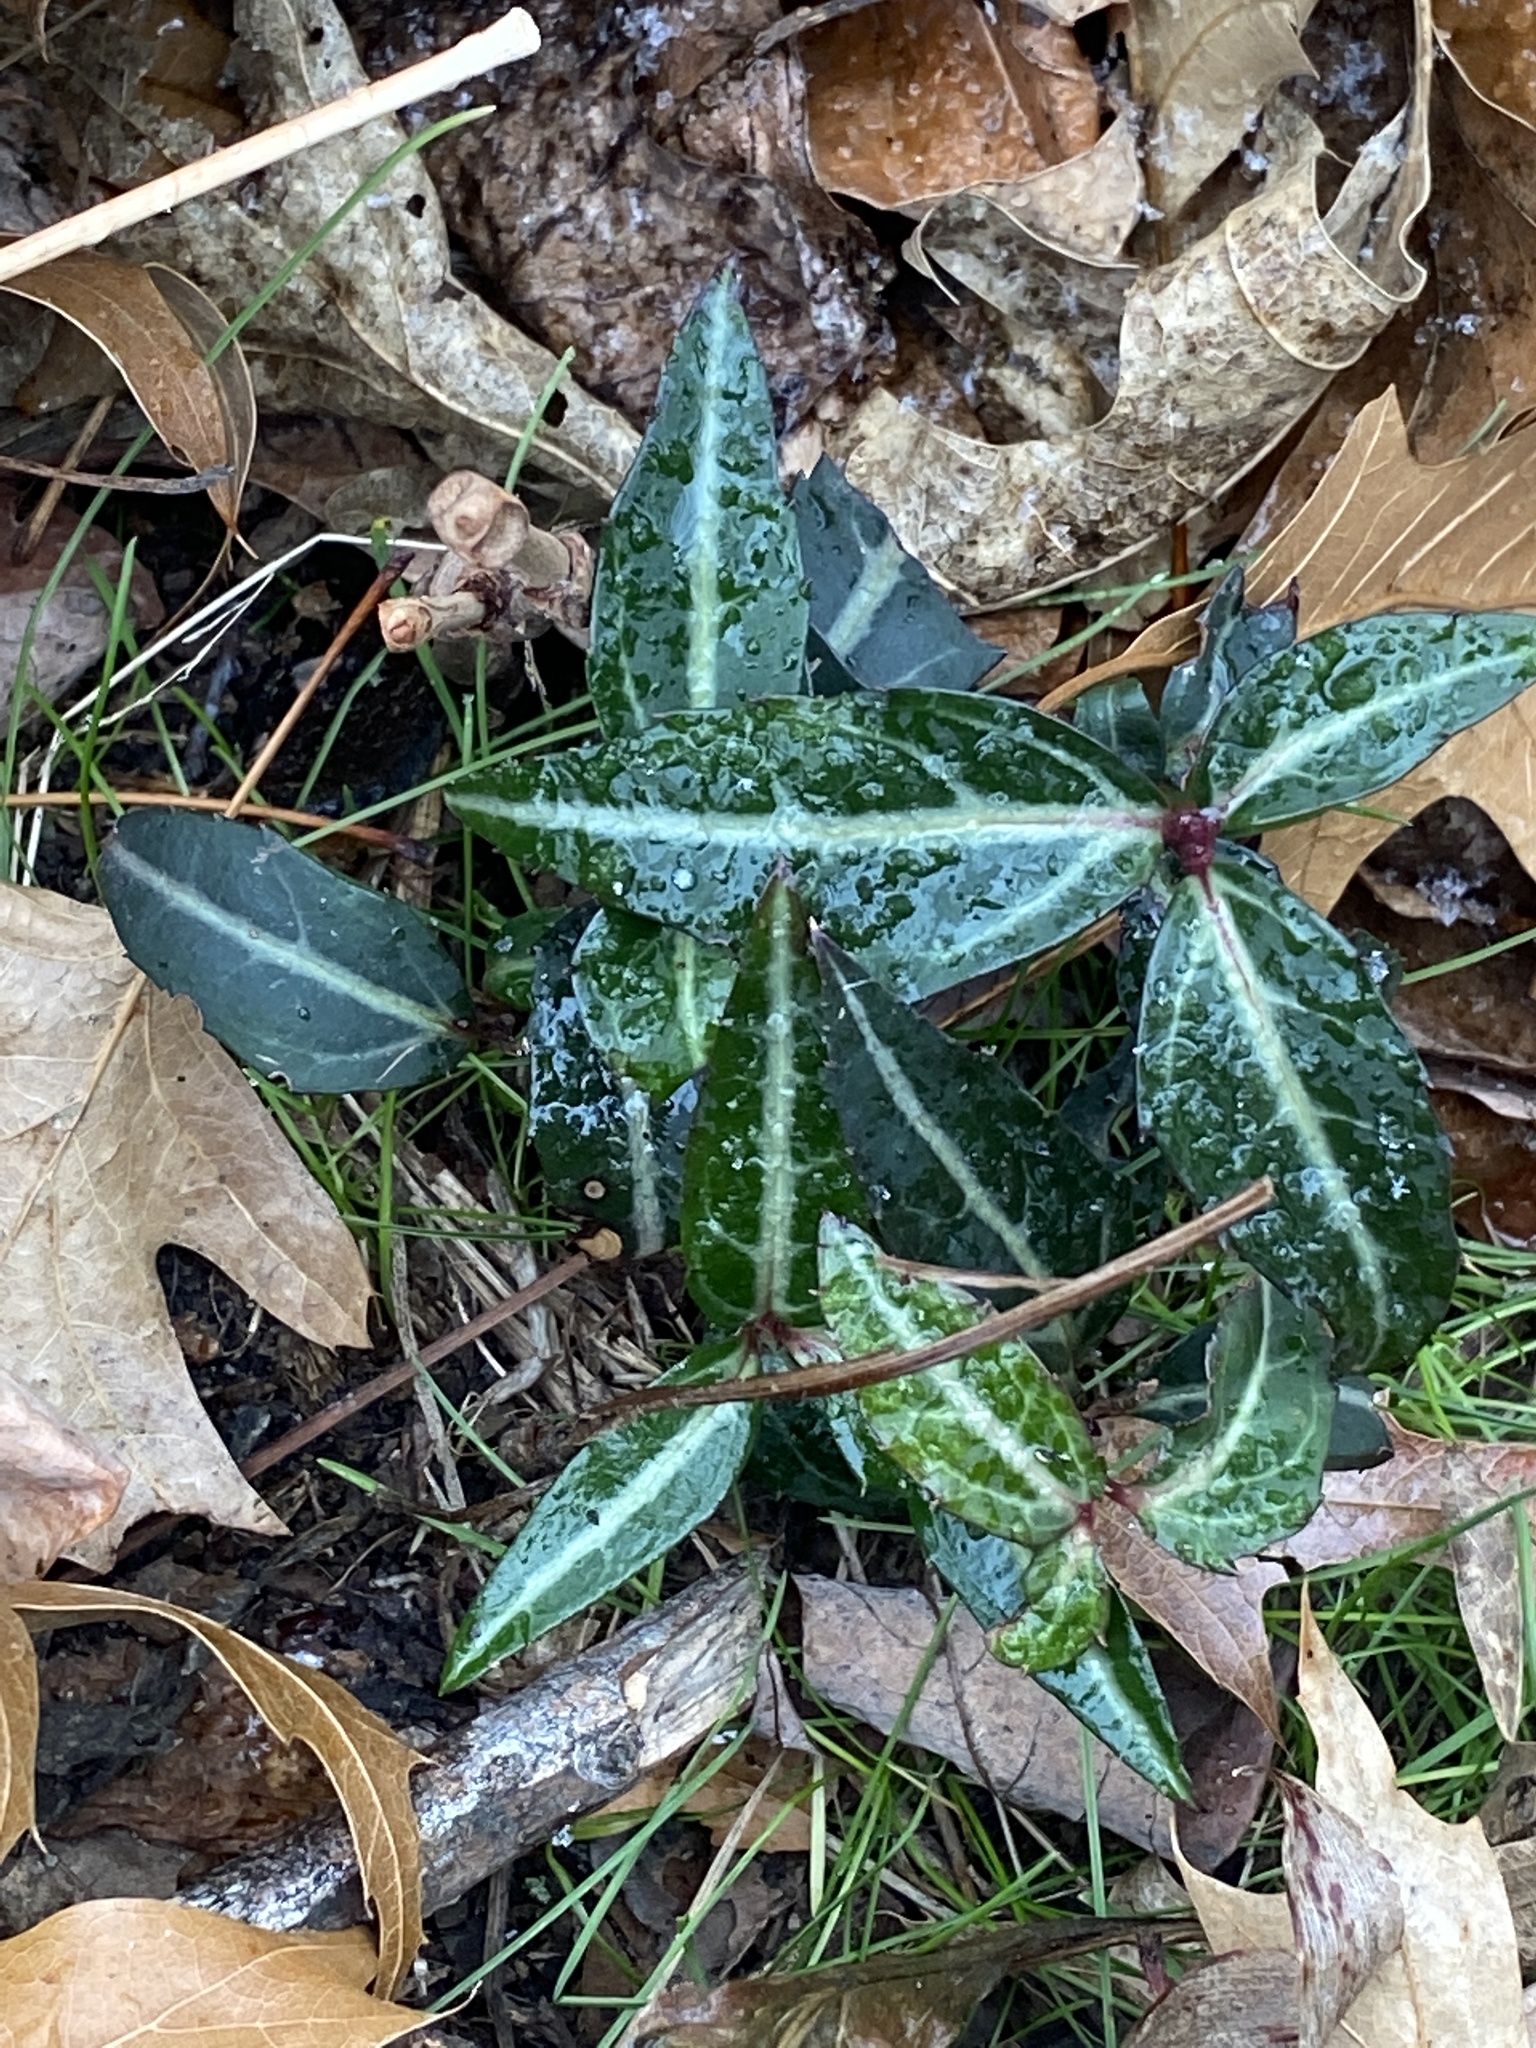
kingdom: Plantae
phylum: Tracheophyta
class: Magnoliopsida
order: Ericales
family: Ericaceae
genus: Chimaphila
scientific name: Chimaphila maculata
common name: Spotted pipsissewa
